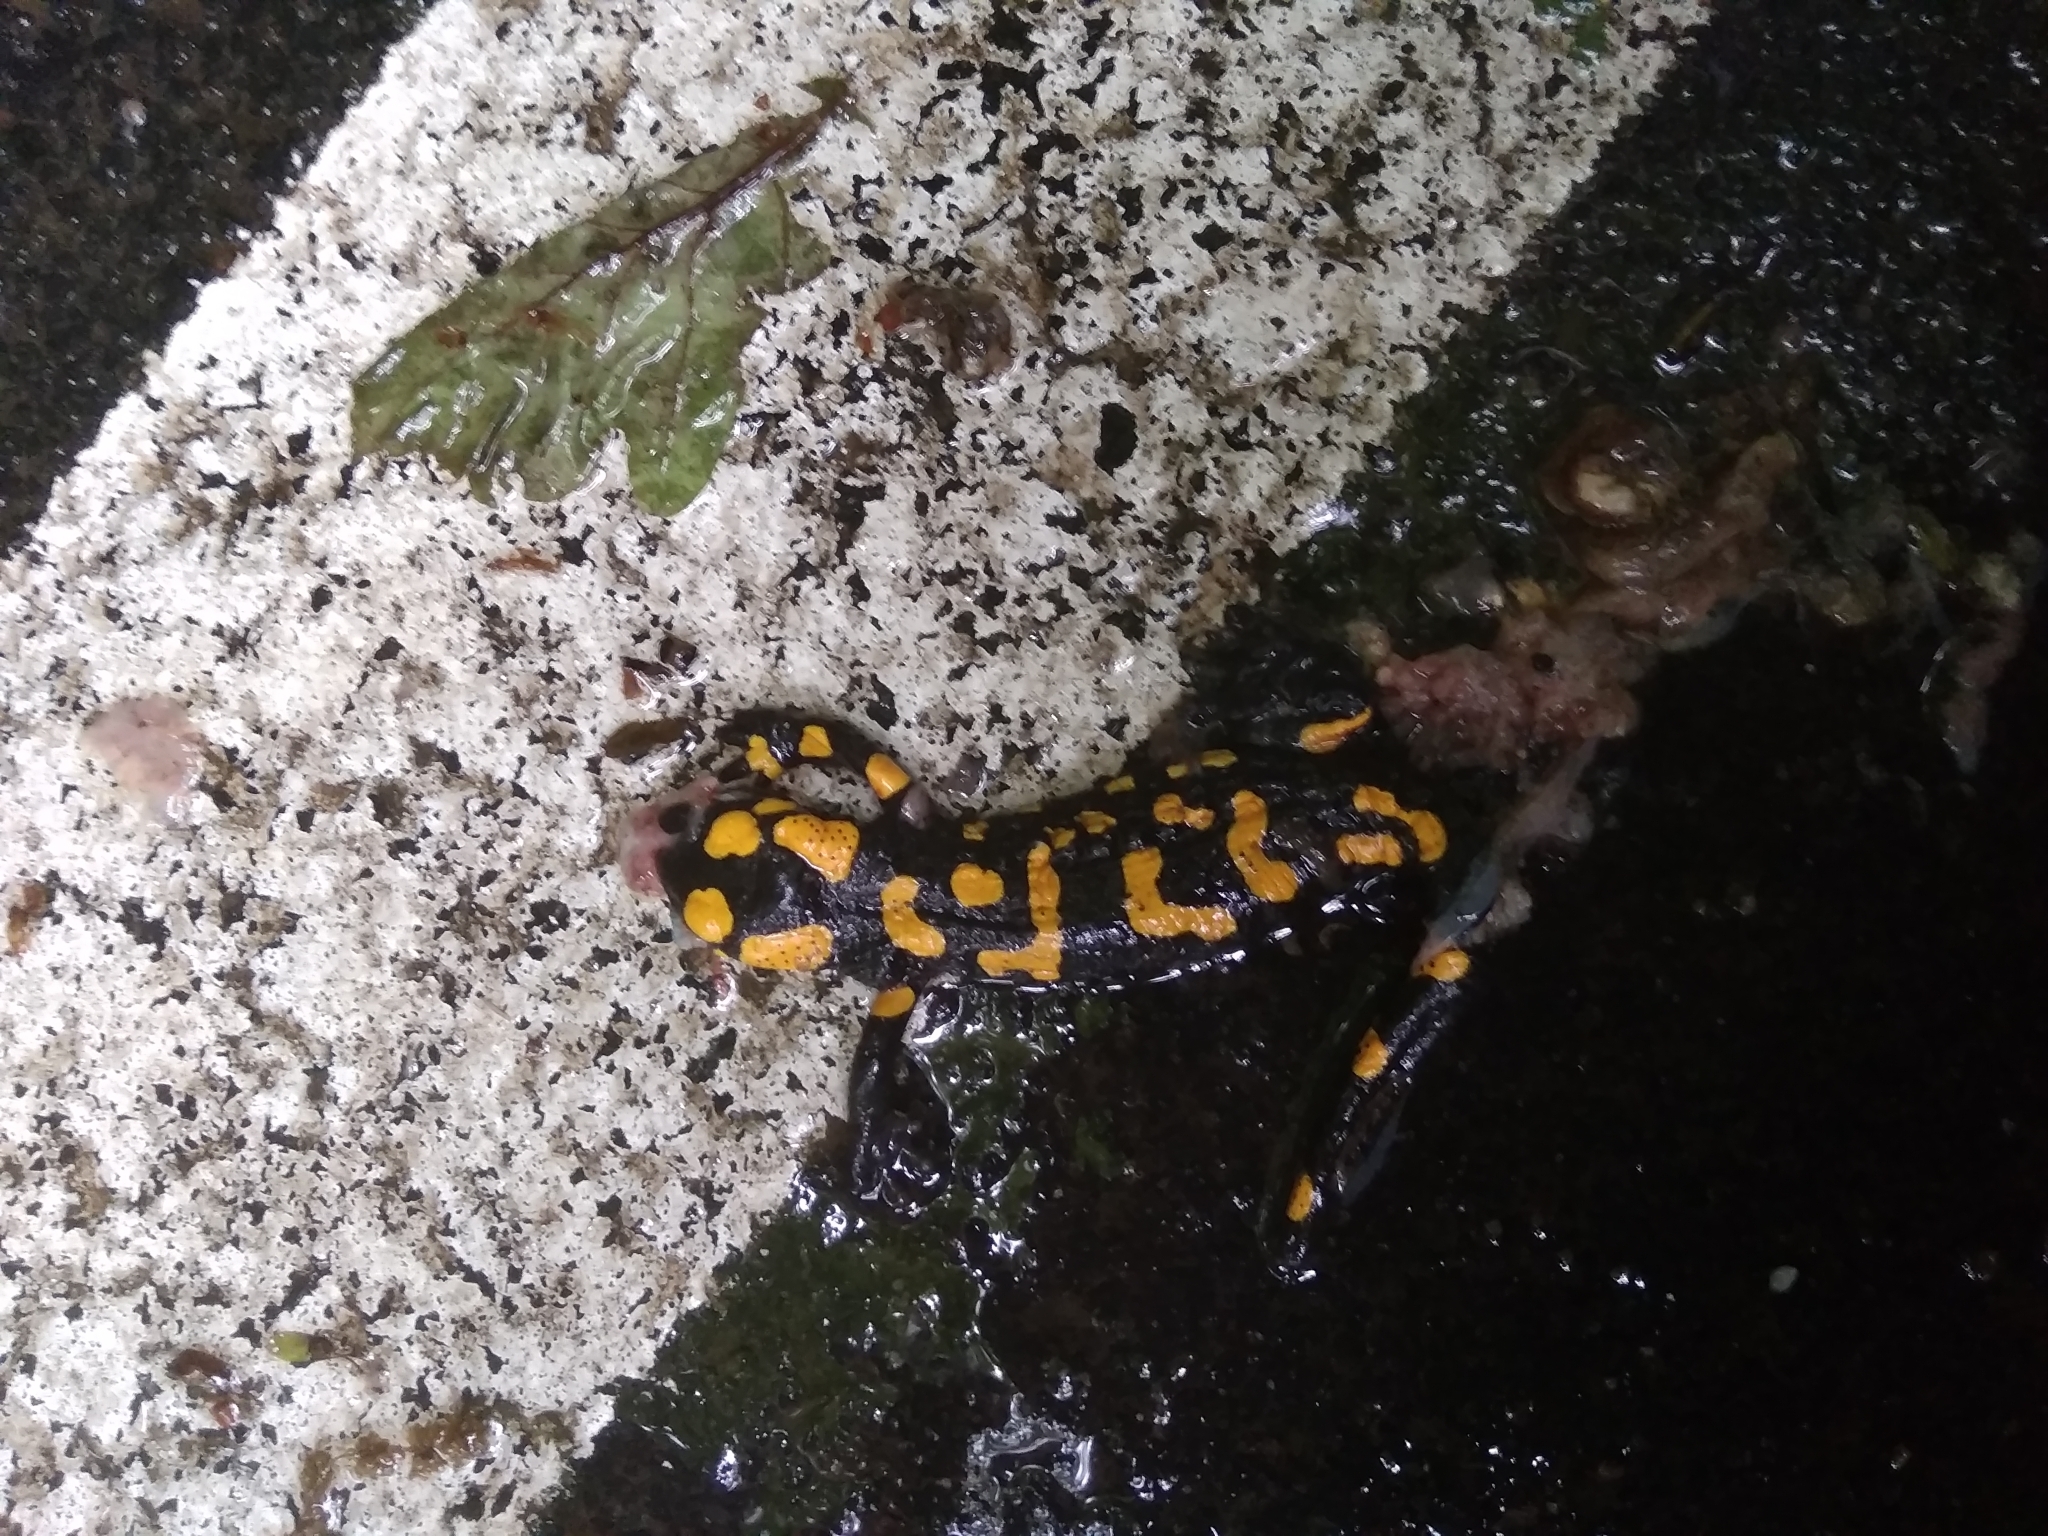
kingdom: Animalia
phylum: Chordata
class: Amphibia
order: Caudata
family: Salamandridae
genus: Salamandra
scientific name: Salamandra salamandra
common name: Fire salamander
